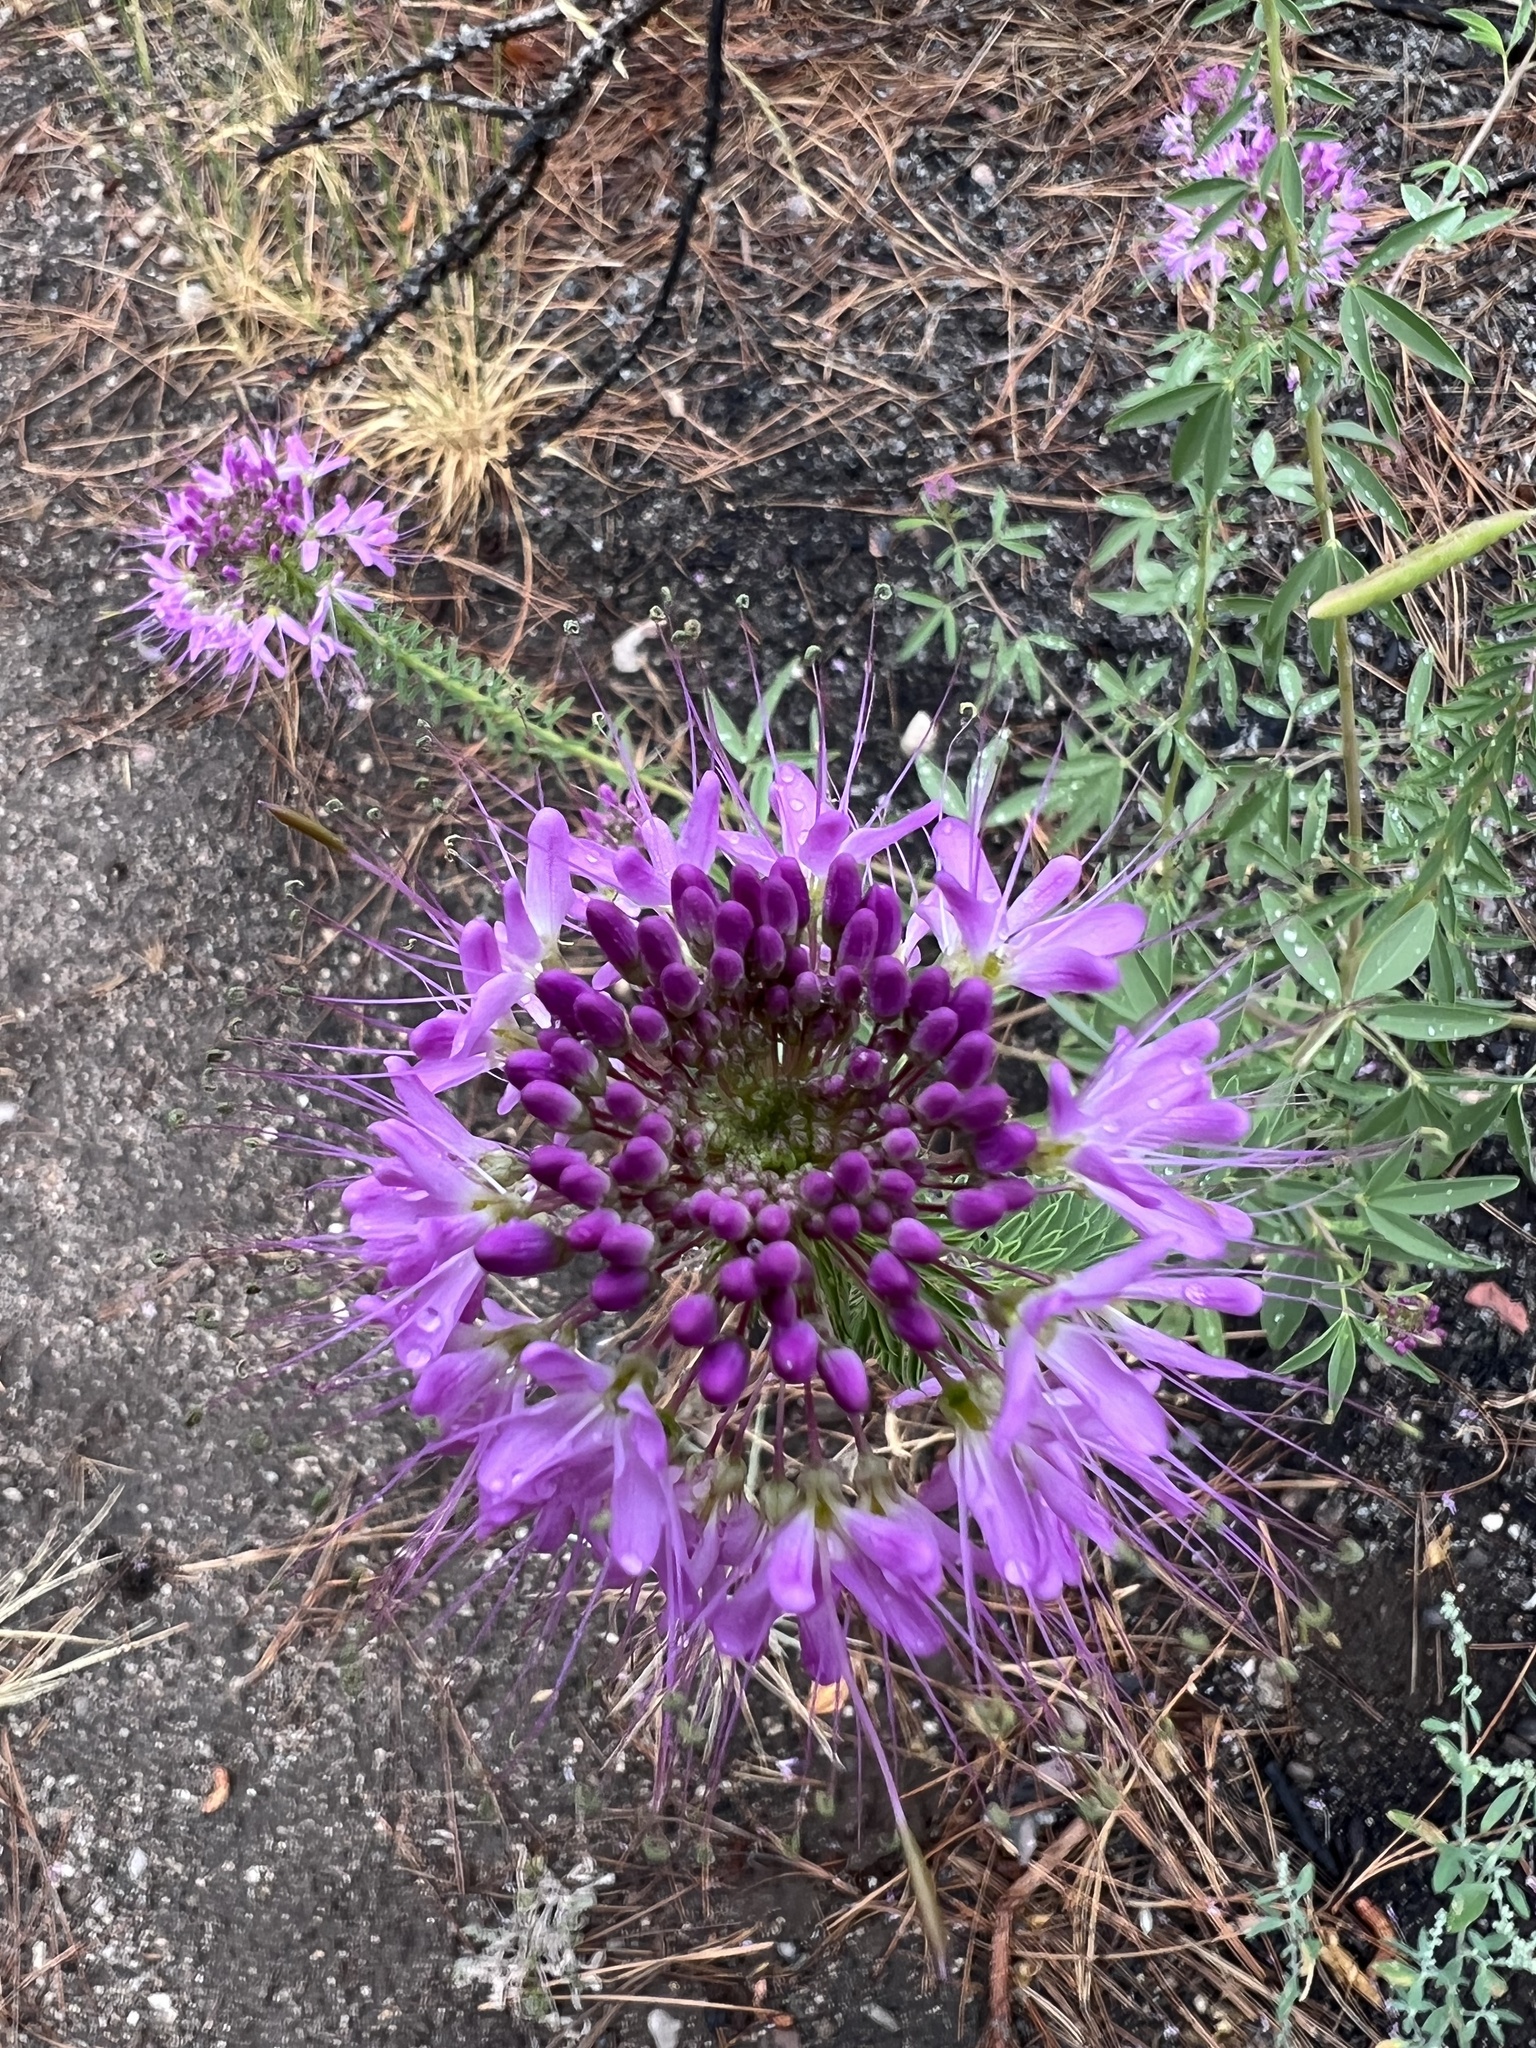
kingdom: Plantae
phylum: Tracheophyta
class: Magnoliopsida
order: Brassicales
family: Cleomaceae
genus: Cleomella
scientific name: Cleomella serrulata
